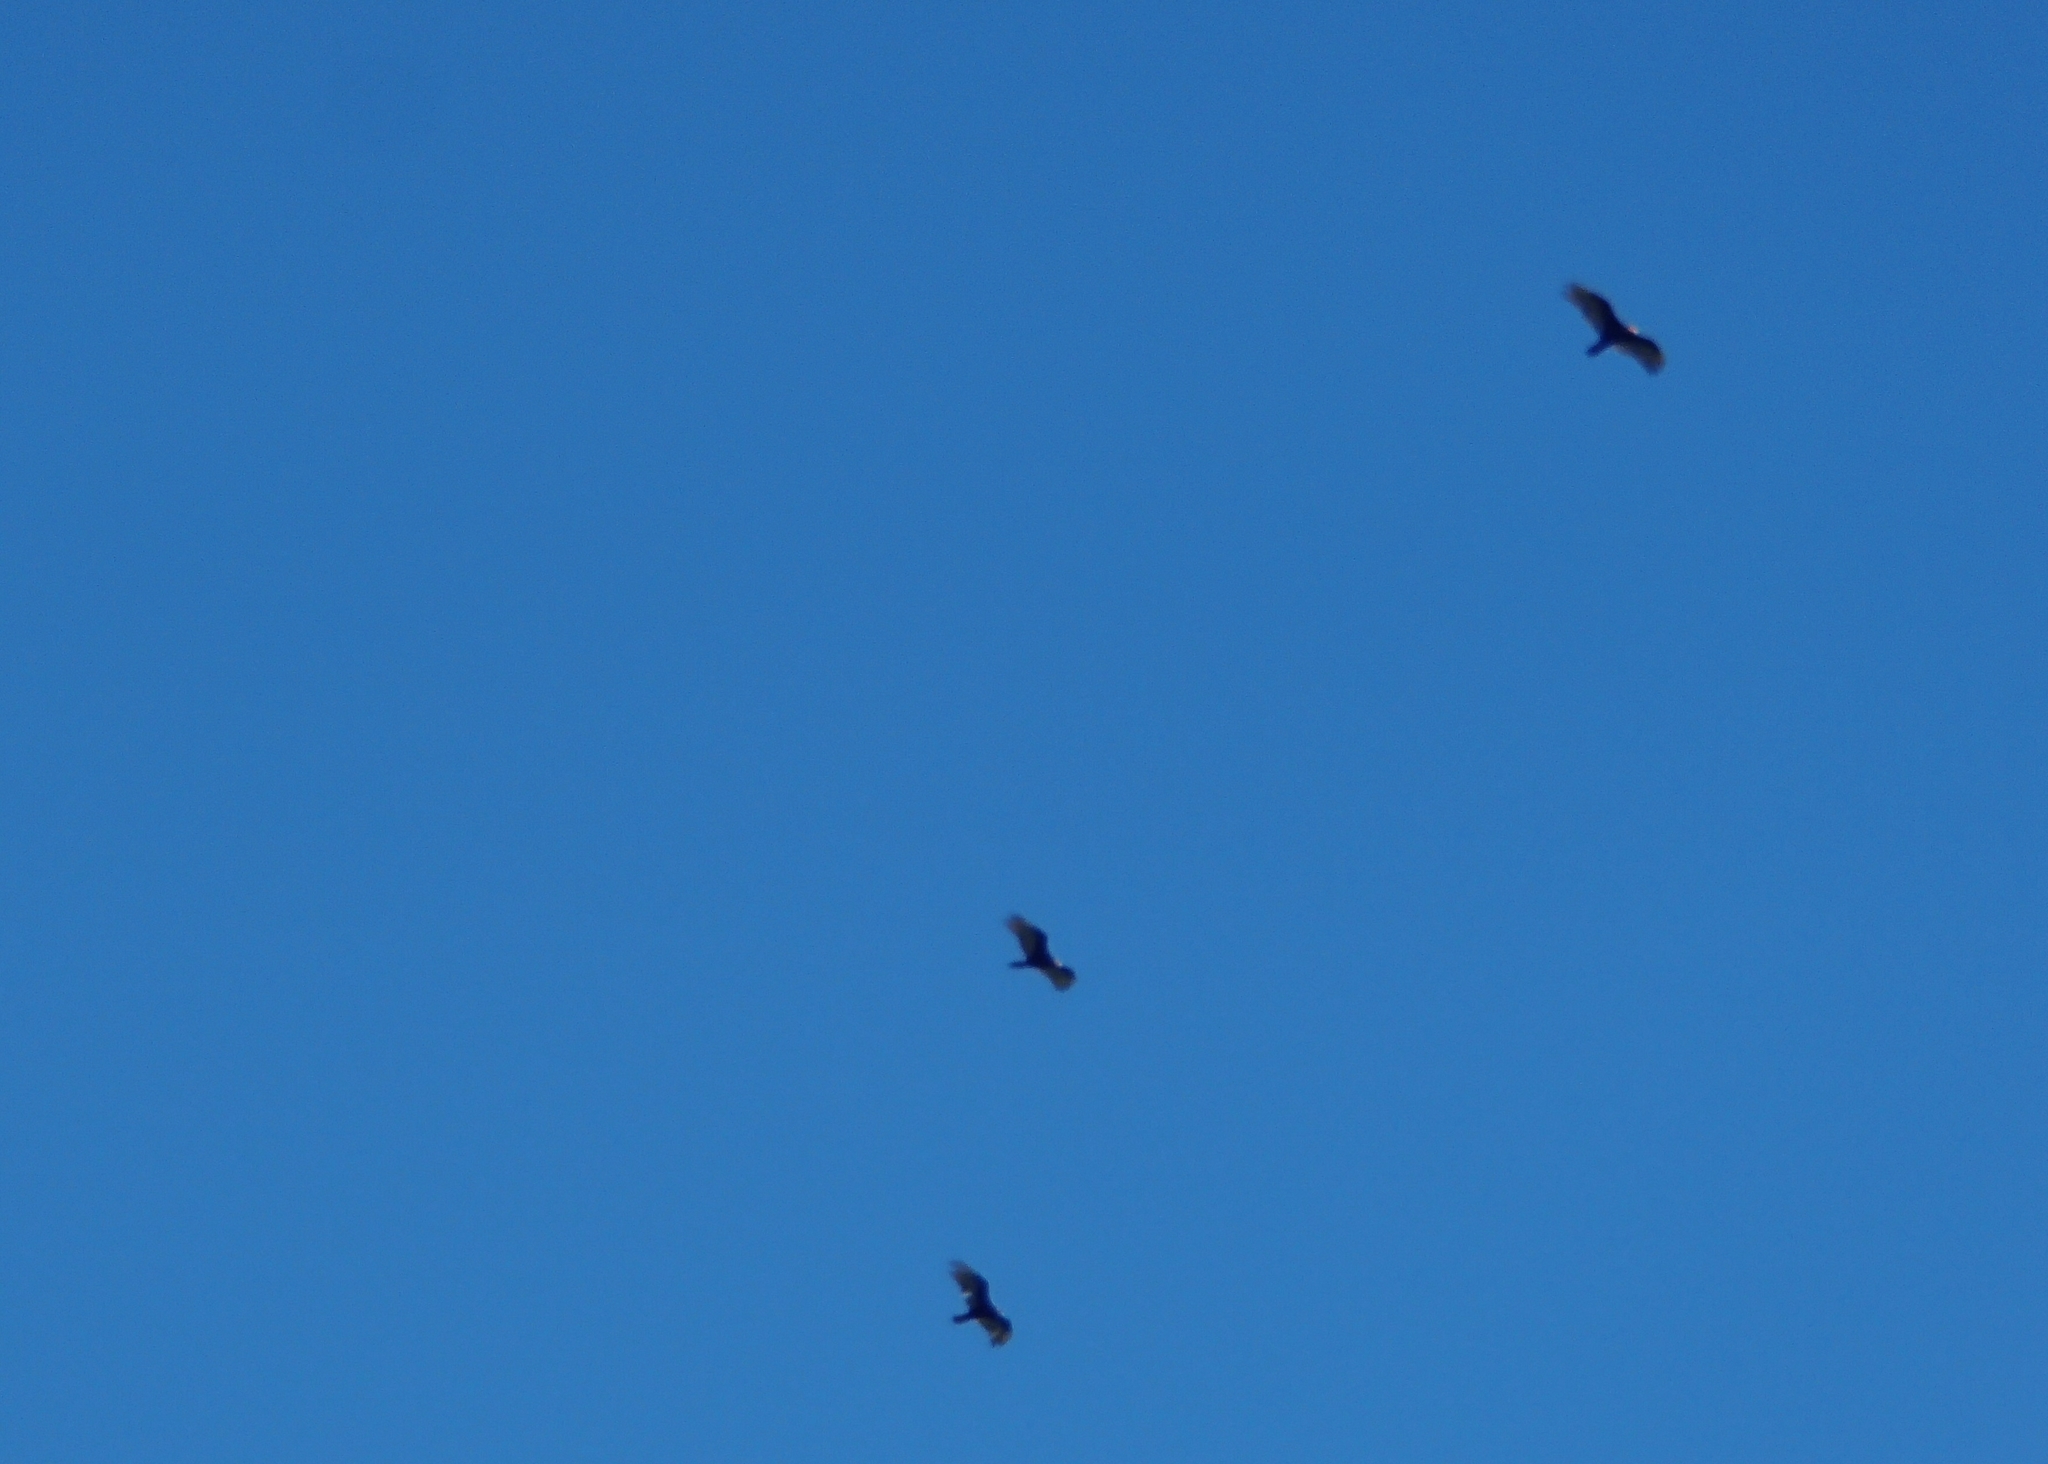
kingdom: Animalia
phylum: Chordata
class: Aves
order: Accipitriformes
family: Cathartidae
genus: Cathartes
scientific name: Cathartes aura
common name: Turkey vulture
